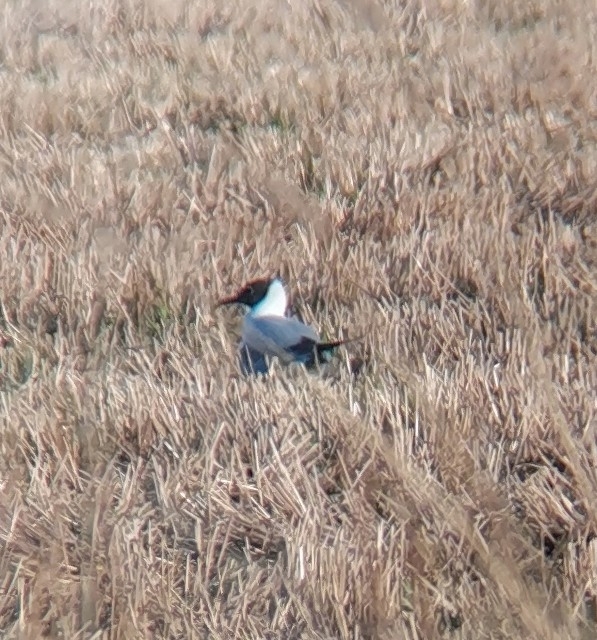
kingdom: Animalia
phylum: Chordata
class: Aves
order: Charadriiformes
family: Laridae
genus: Chroicocephalus
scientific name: Chroicocephalus ridibundus
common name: Black-headed gull
